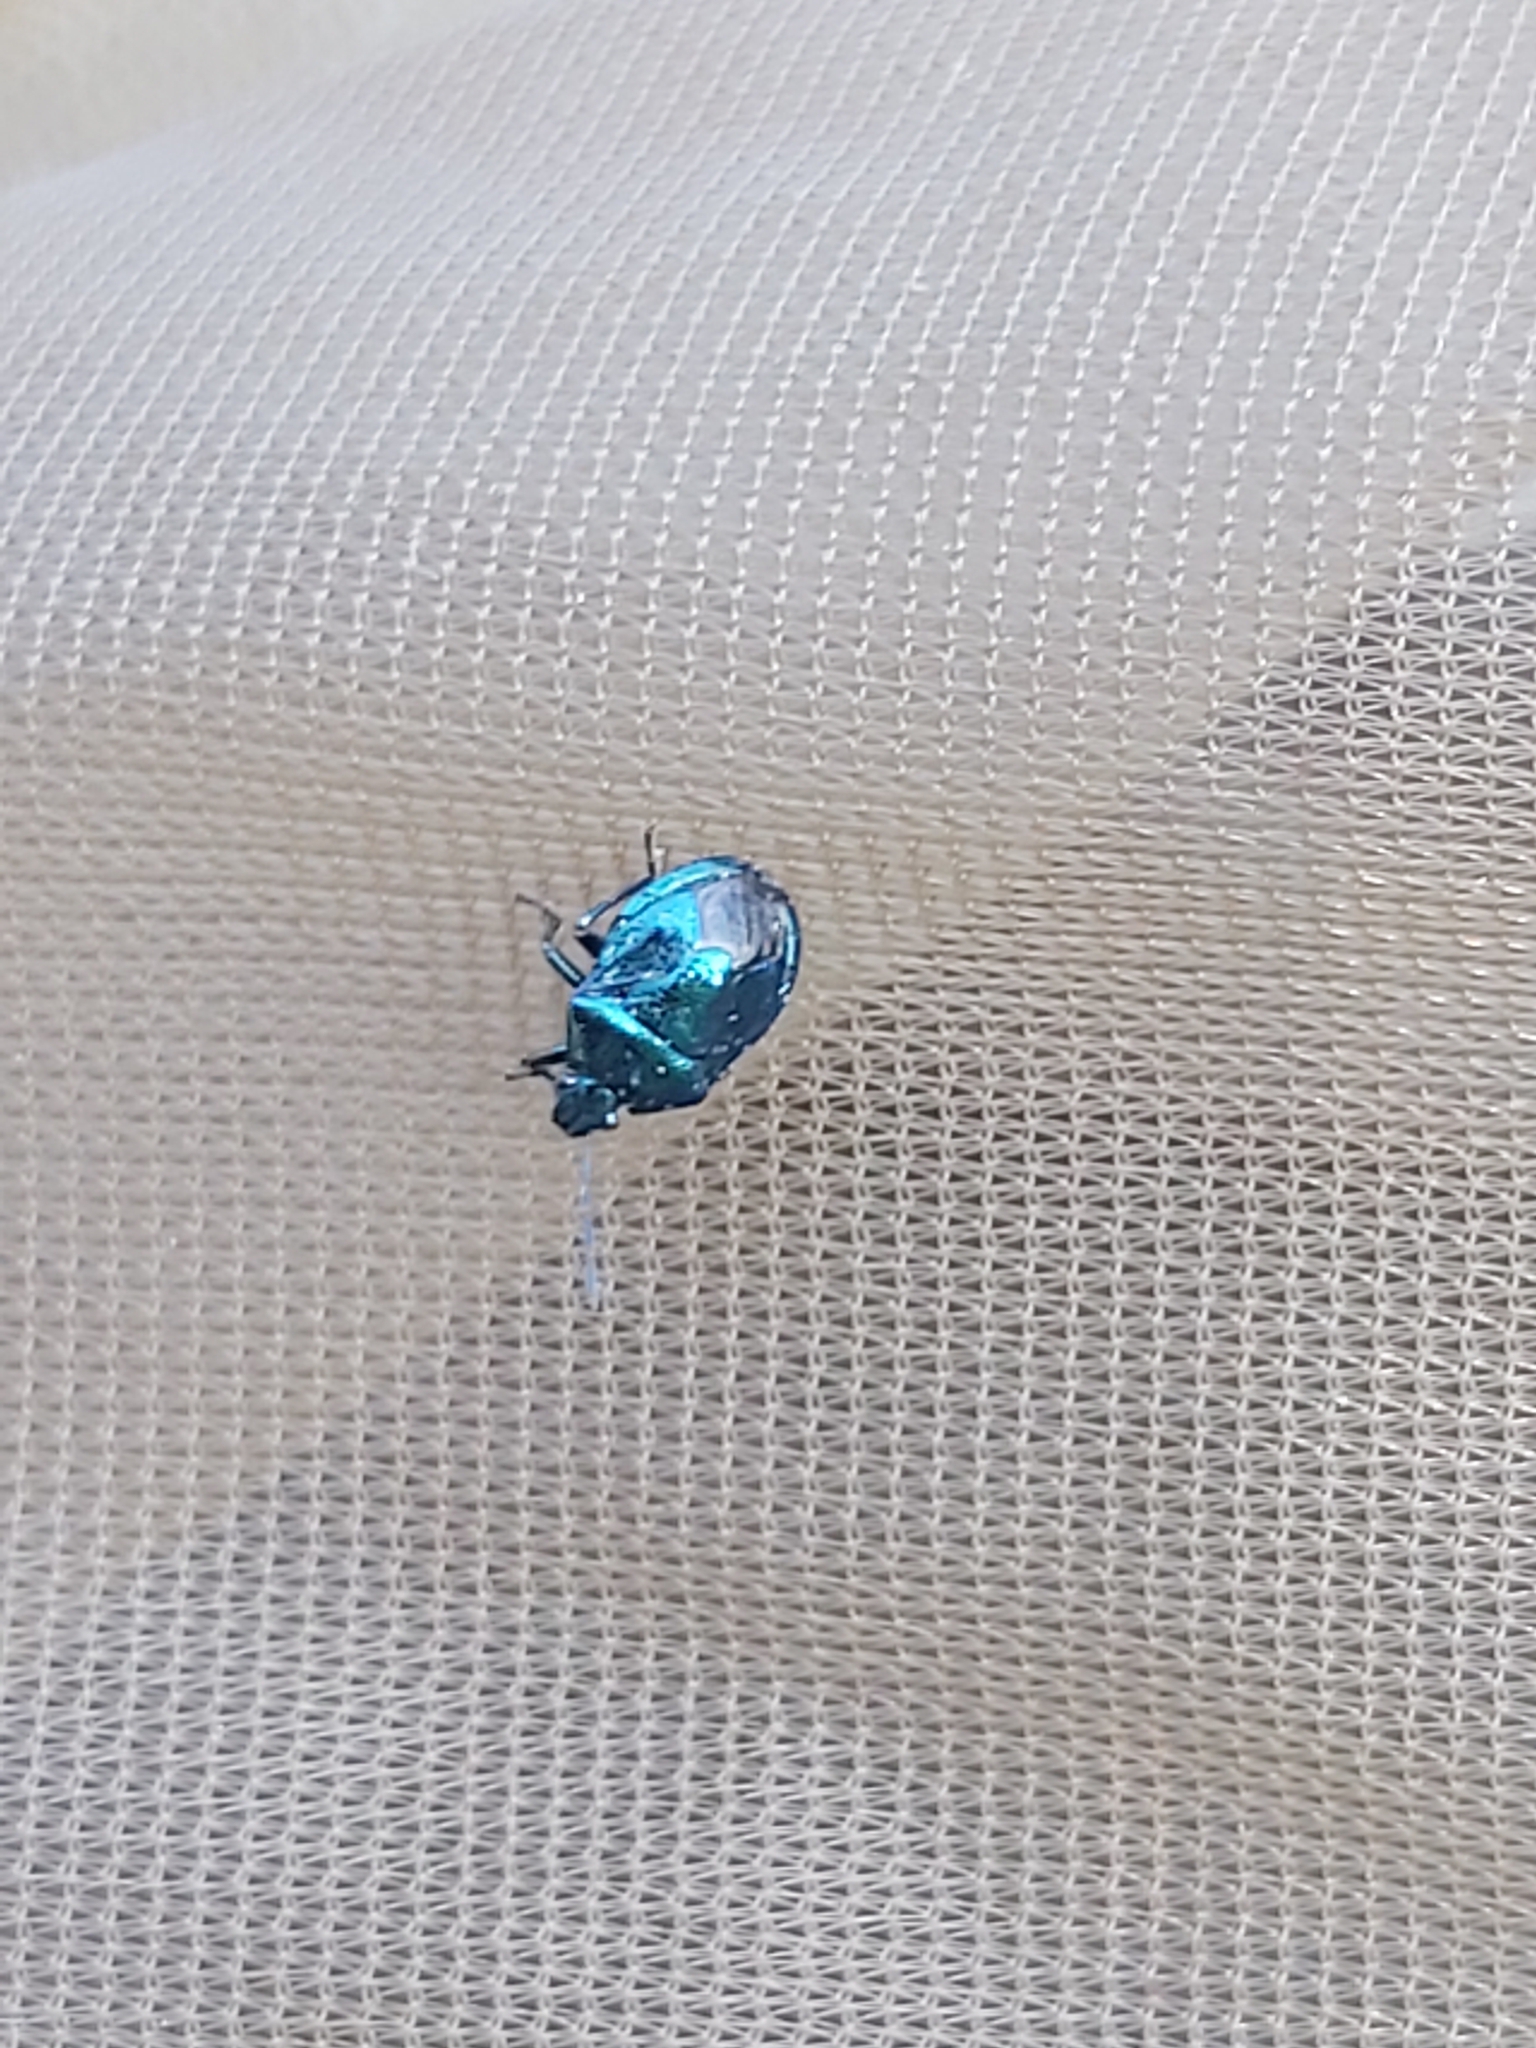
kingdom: Animalia
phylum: Arthropoda
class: Insecta
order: Hemiptera
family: Pentatomidae
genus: Zicrona
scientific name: Zicrona caerulea
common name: Blue shieldbug
